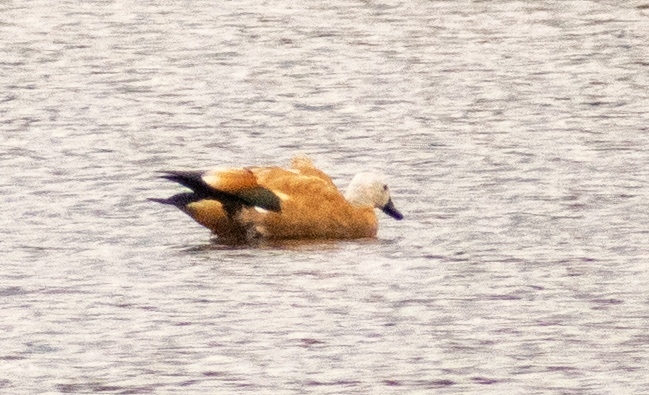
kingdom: Animalia
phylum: Chordata
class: Aves
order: Anseriformes
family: Anatidae
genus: Tadorna
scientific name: Tadorna ferruginea
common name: Ruddy shelduck
